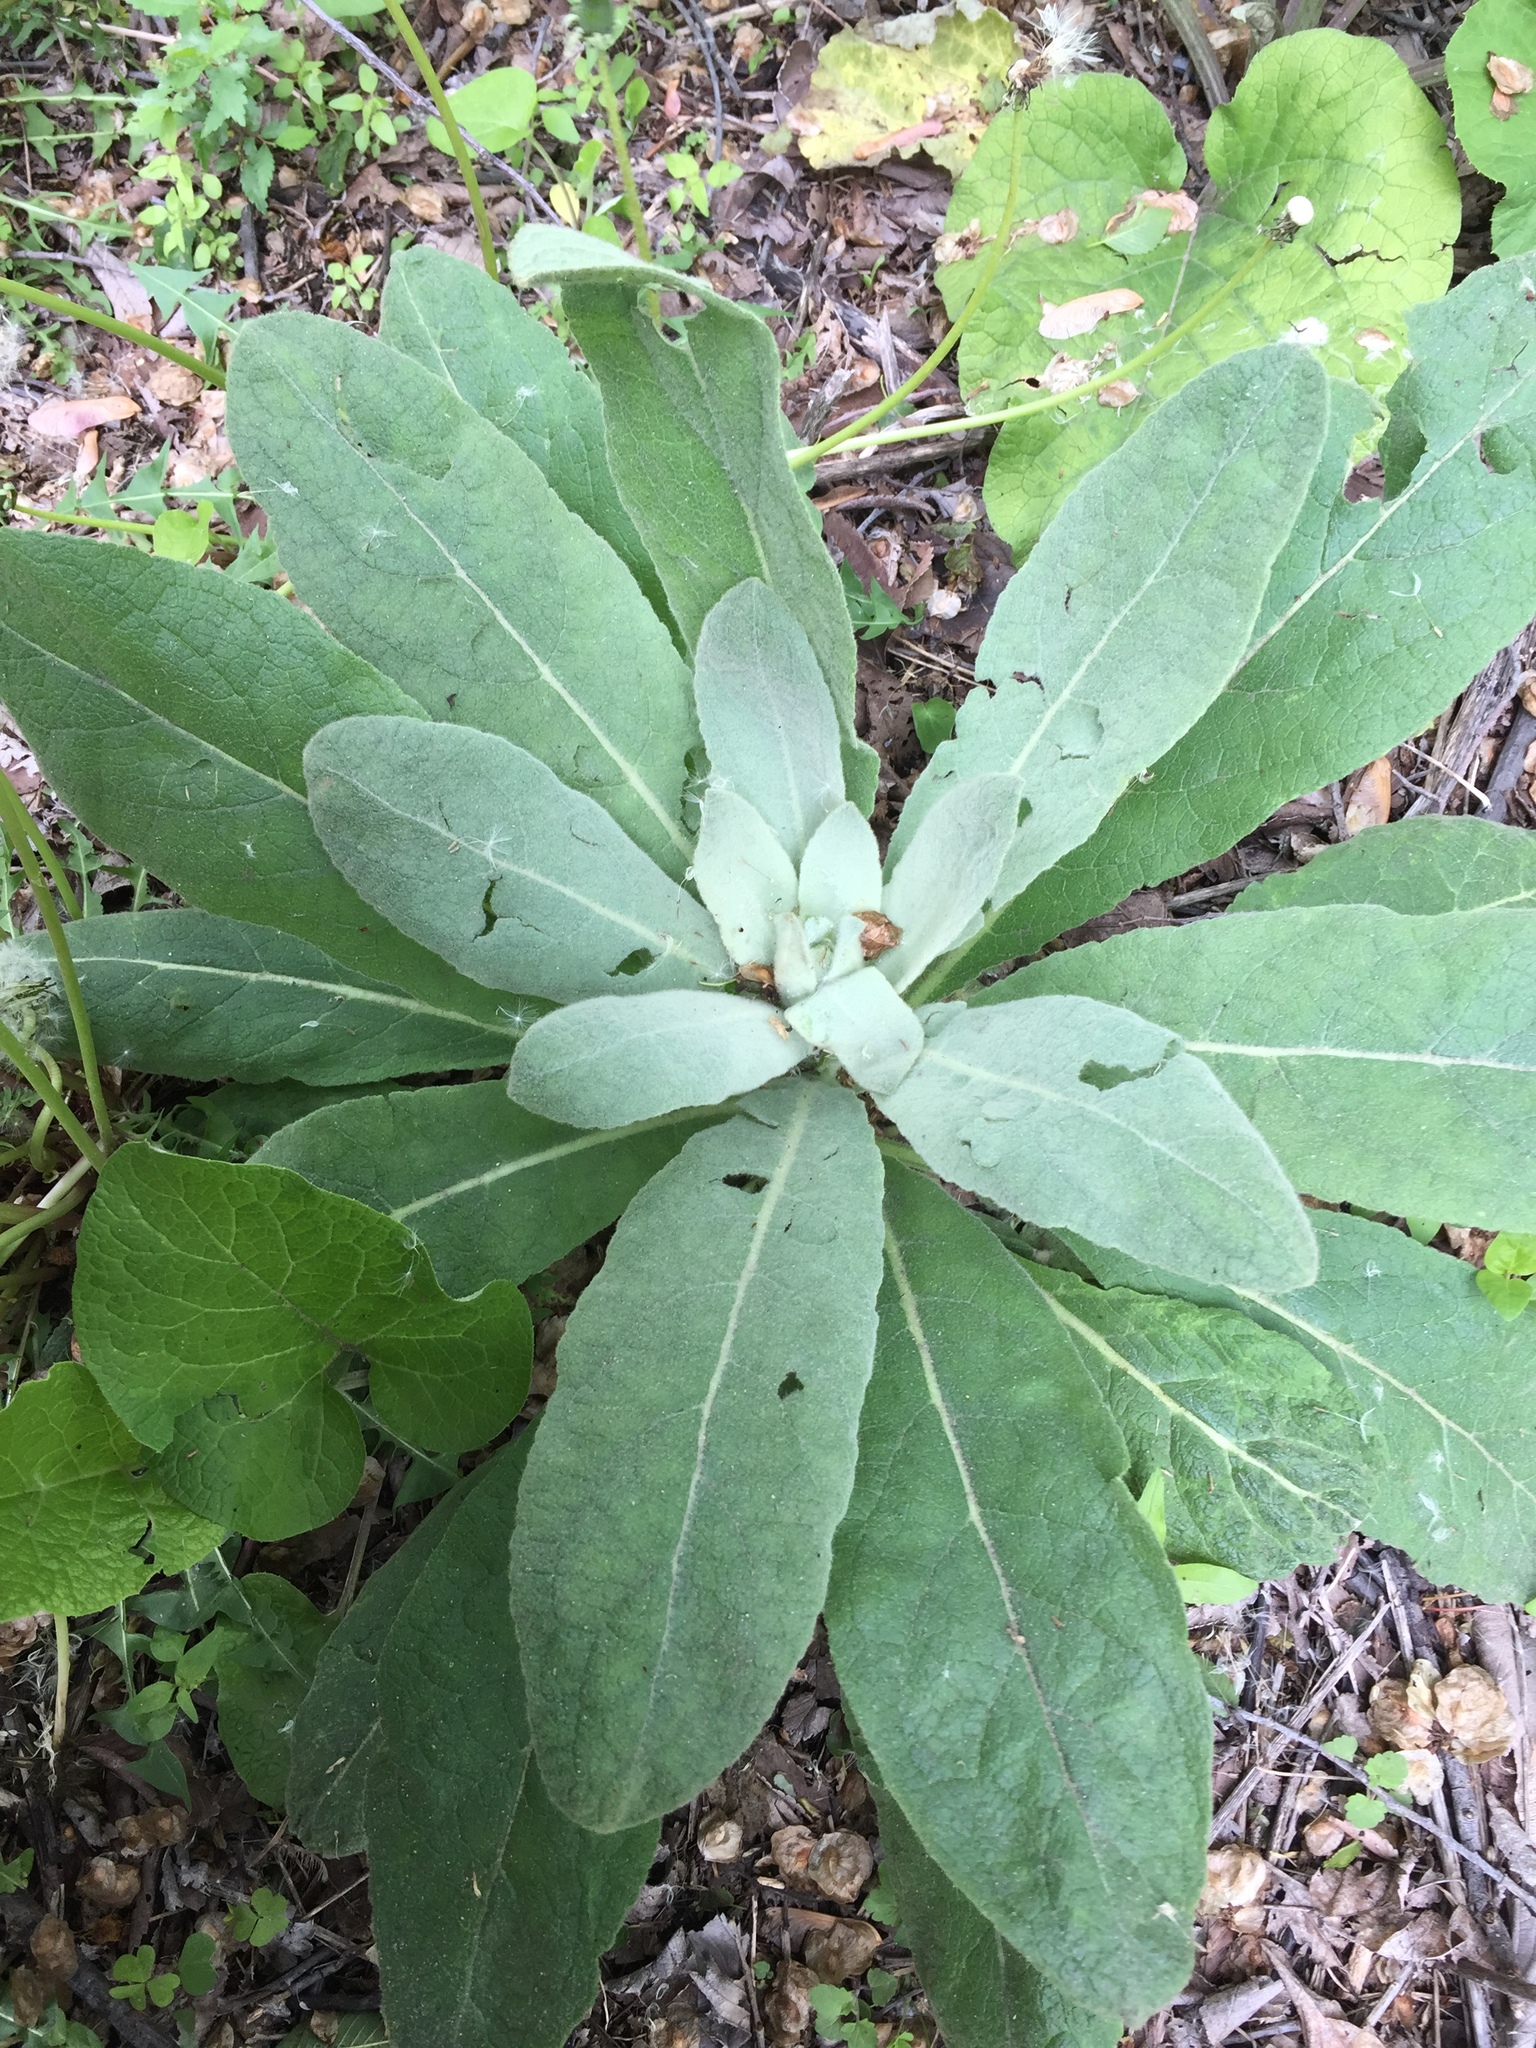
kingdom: Plantae
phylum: Tracheophyta
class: Magnoliopsida
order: Lamiales
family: Scrophulariaceae
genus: Verbascum
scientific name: Verbascum thapsus
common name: Common mullein
